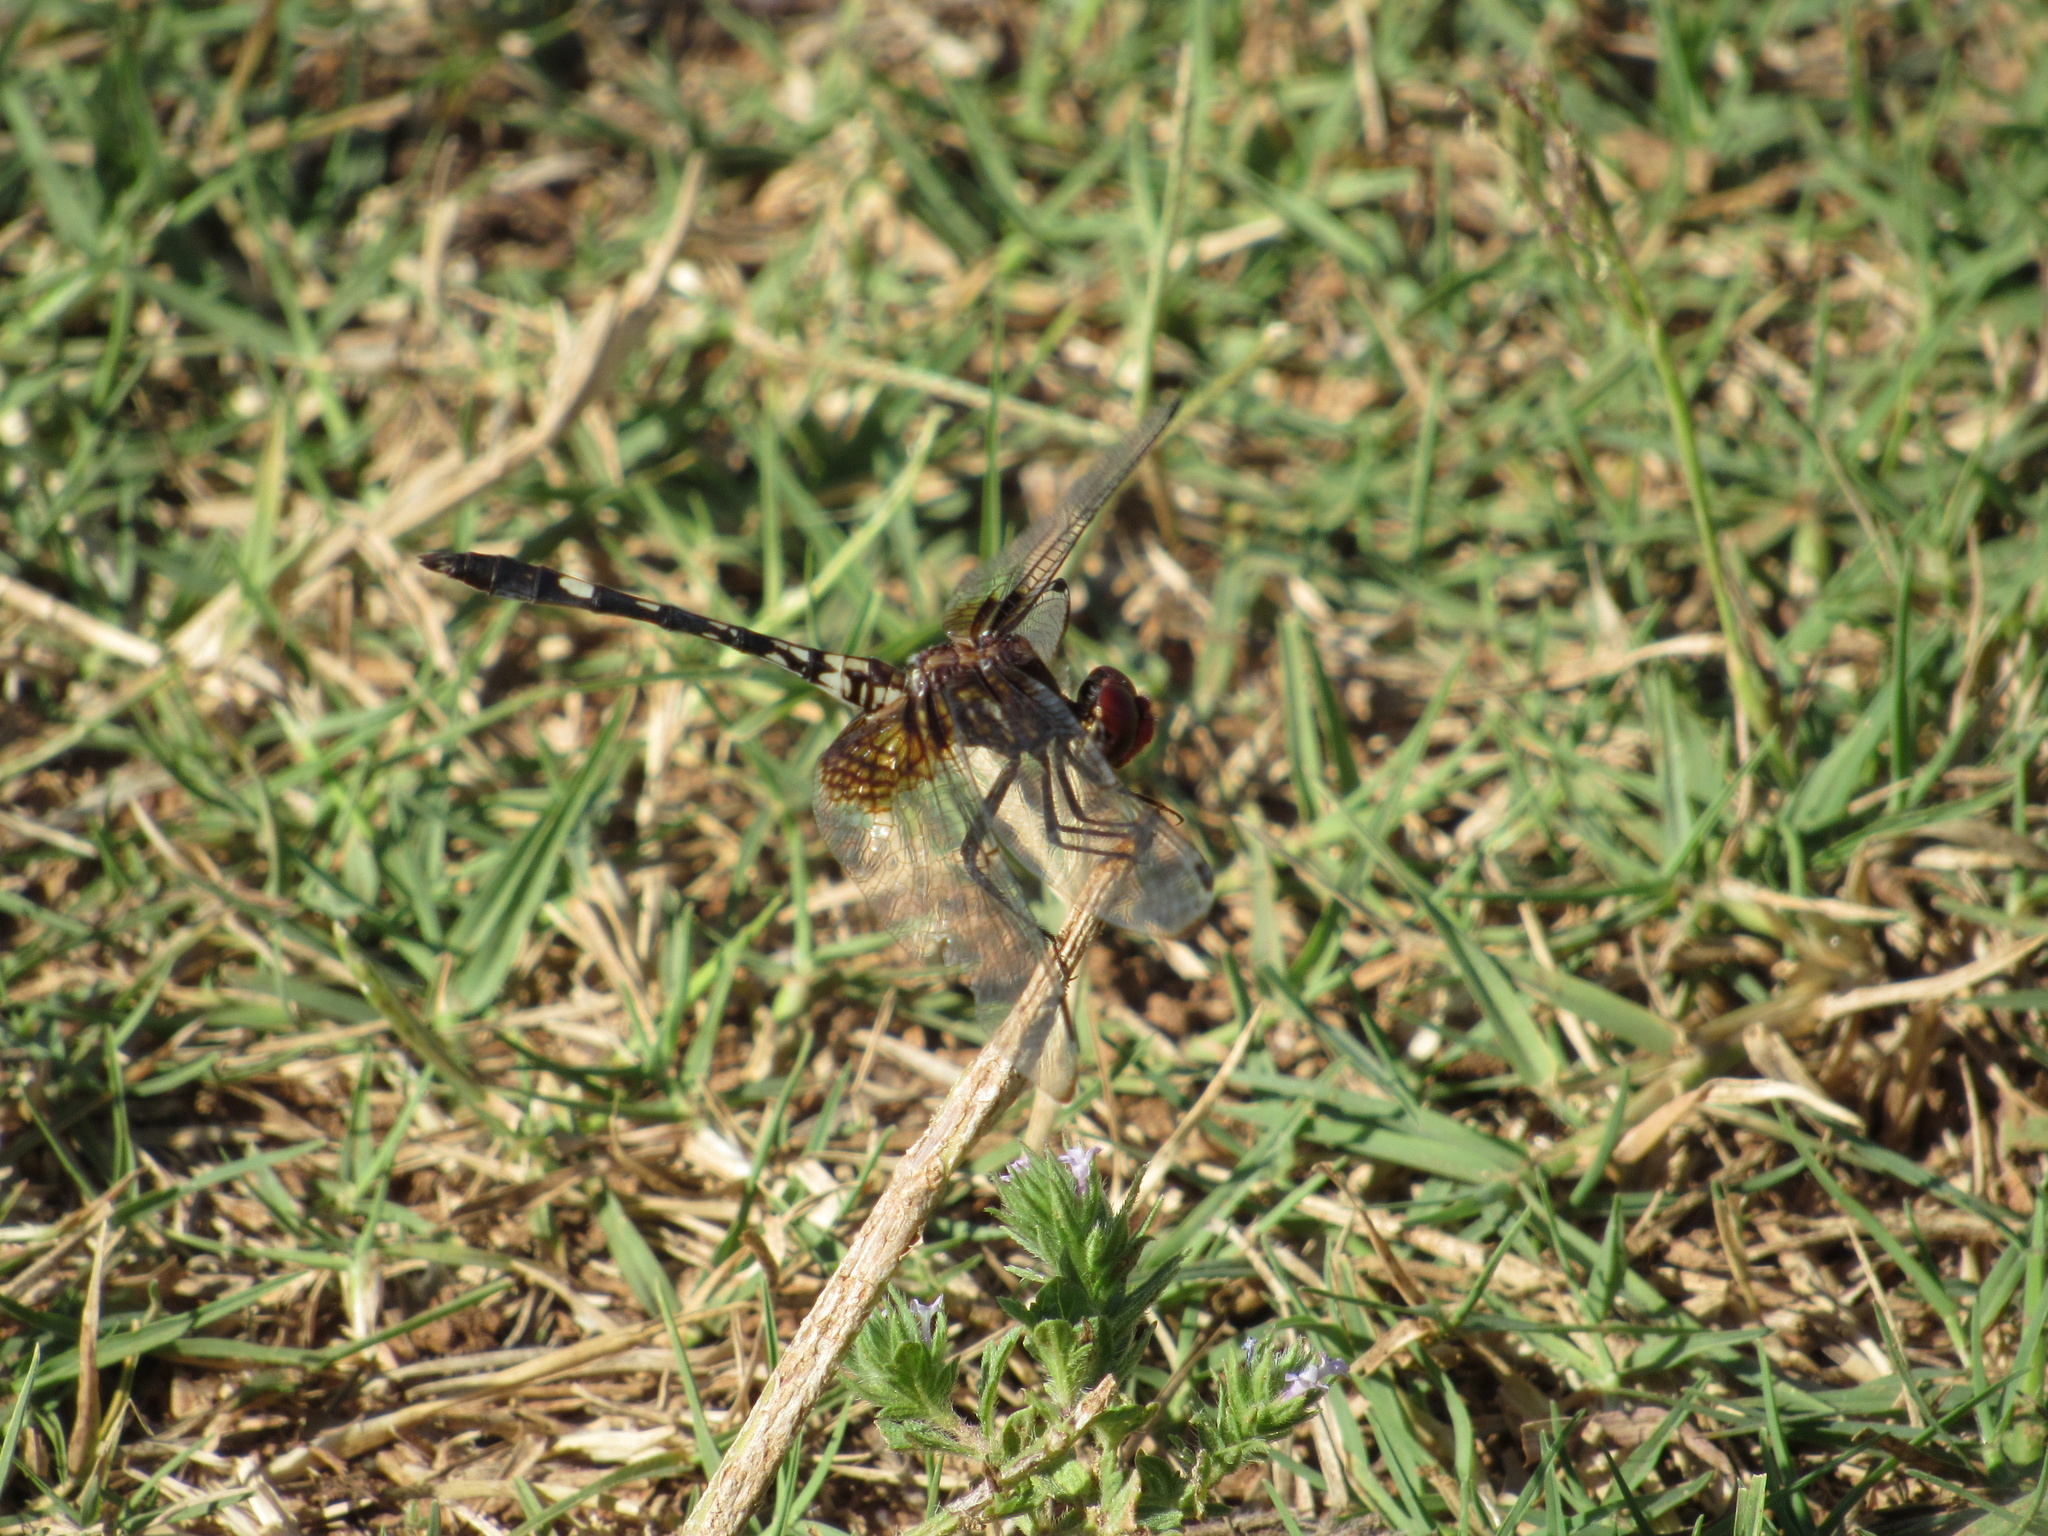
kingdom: Animalia
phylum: Arthropoda
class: Insecta
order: Odonata
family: Libellulidae
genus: Dythemis
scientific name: Dythemis fugax
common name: Checkered setwing
